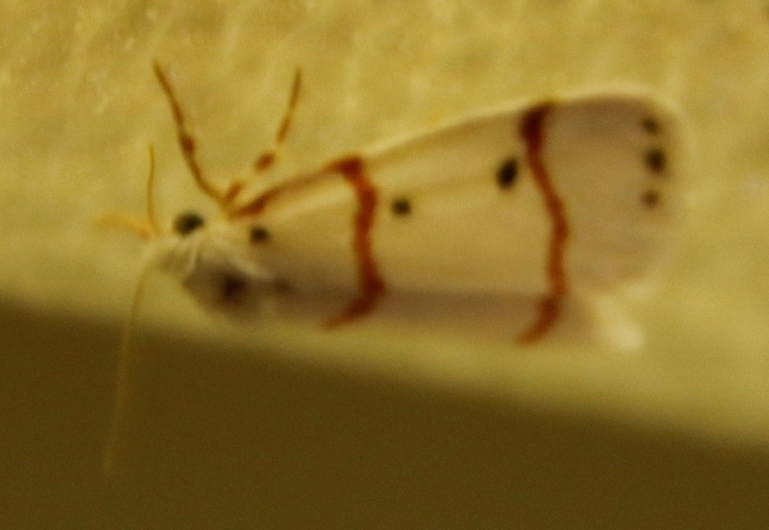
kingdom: Animalia
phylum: Arthropoda
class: Insecta
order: Lepidoptera
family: Erebidae
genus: Cyana
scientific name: Cyana ignifera
